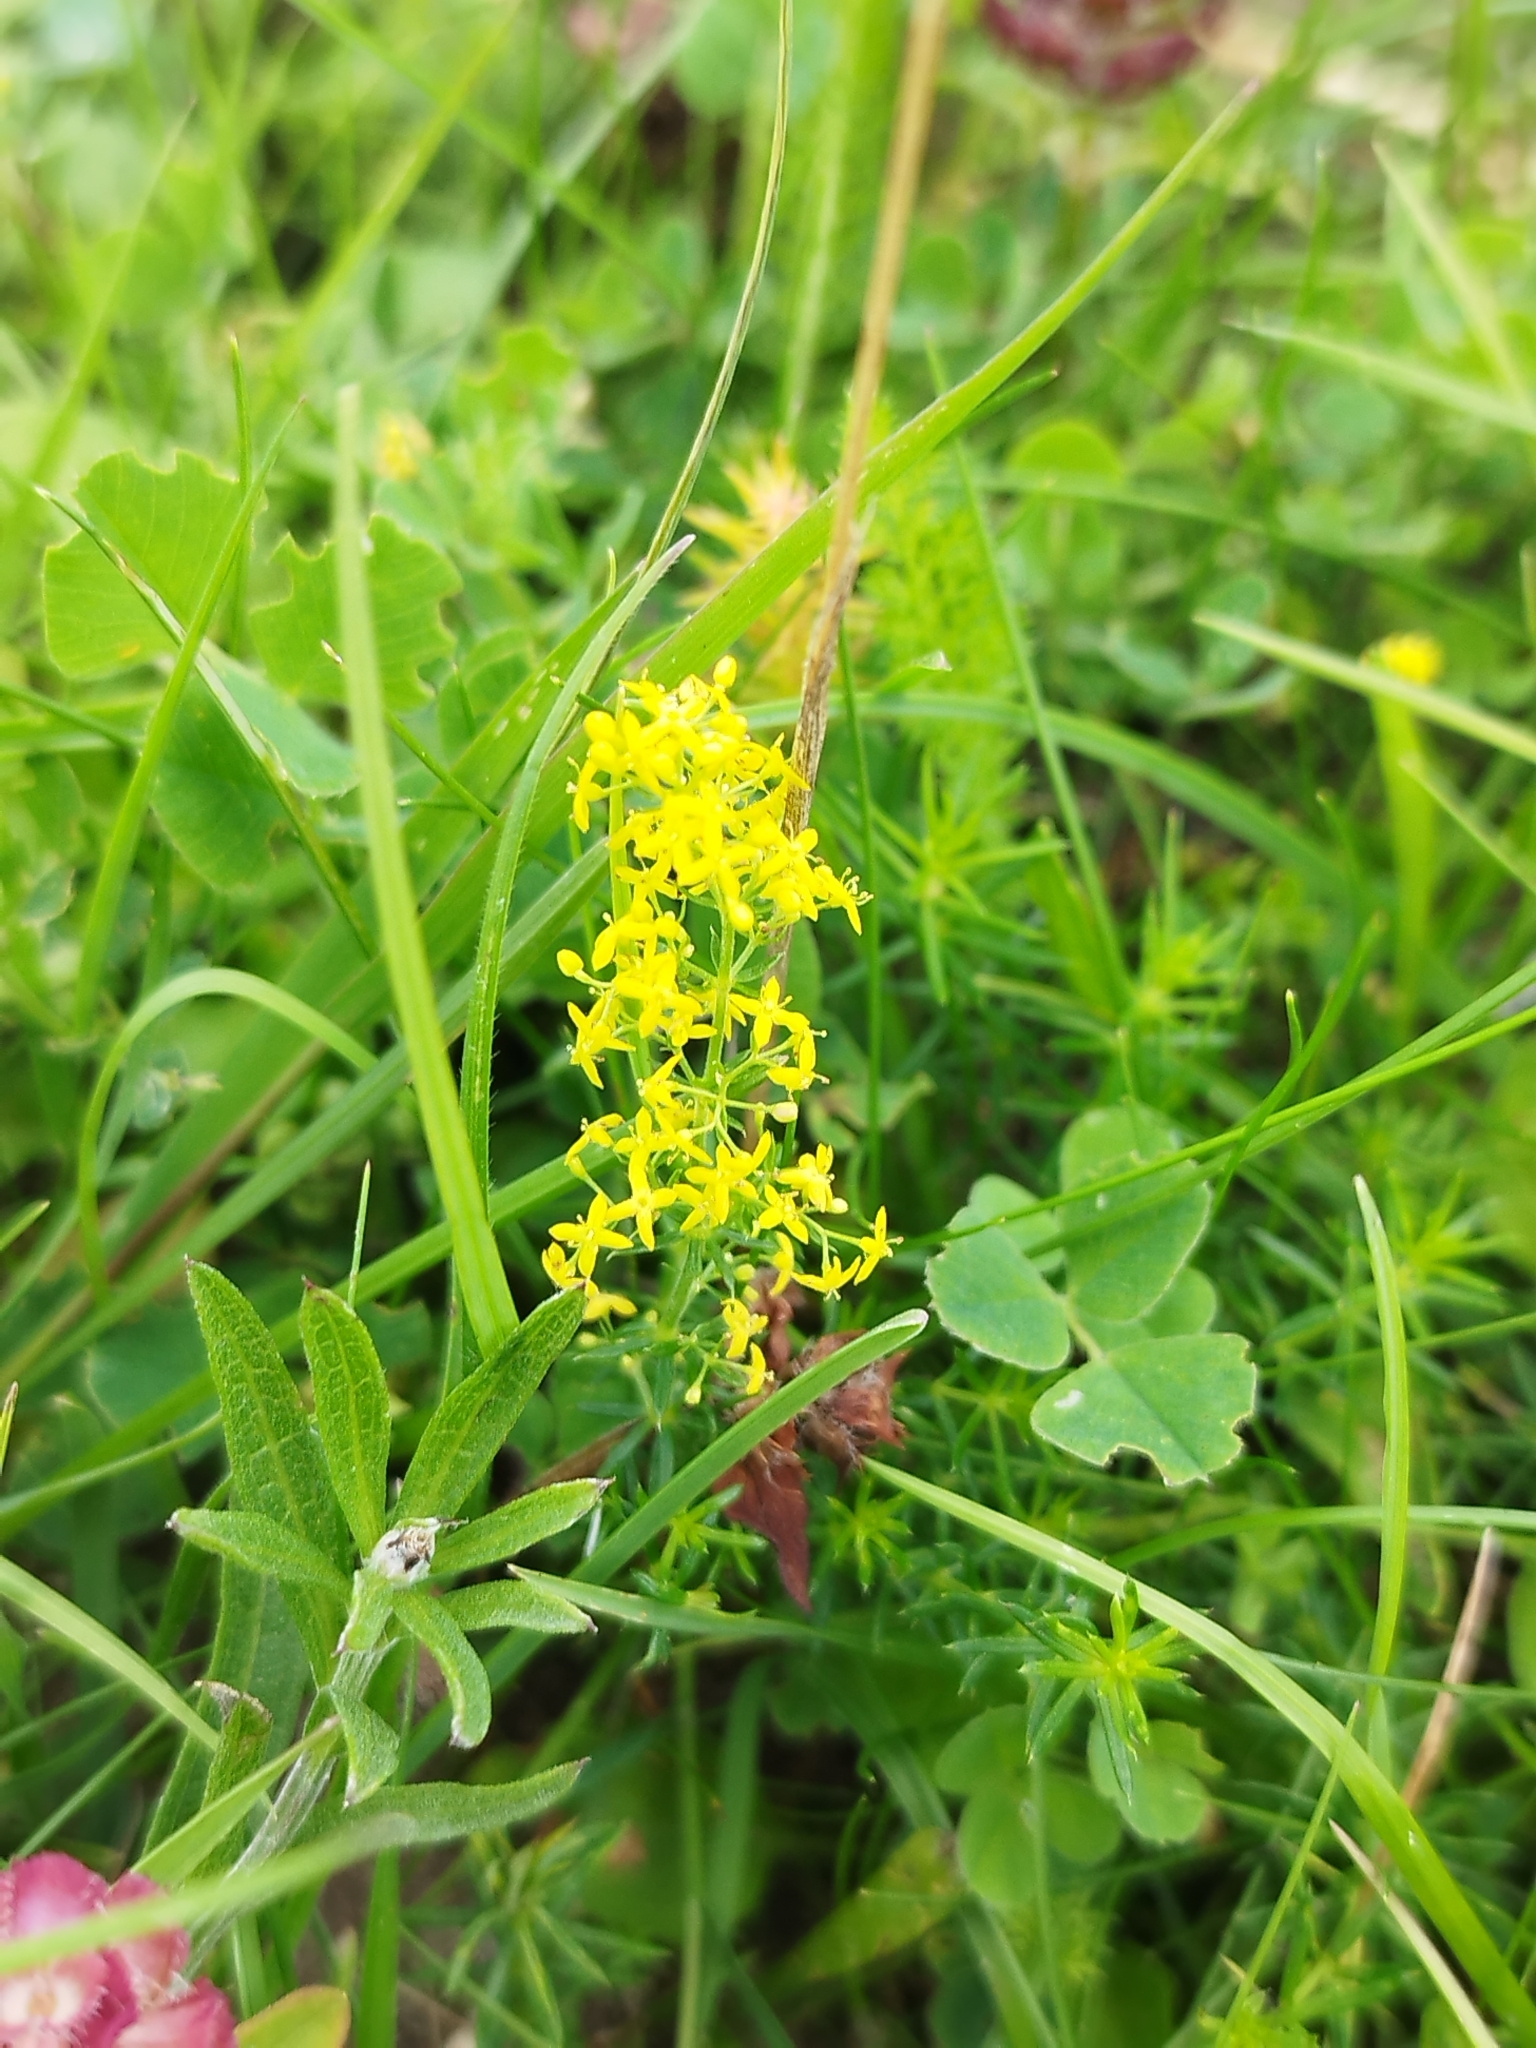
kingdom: Plantae
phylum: Tracheophyta
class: Magnoliopsida
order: Gentianales
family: Rubiaceae
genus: Galium
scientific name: Galium verum
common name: Lady's bedstraw
